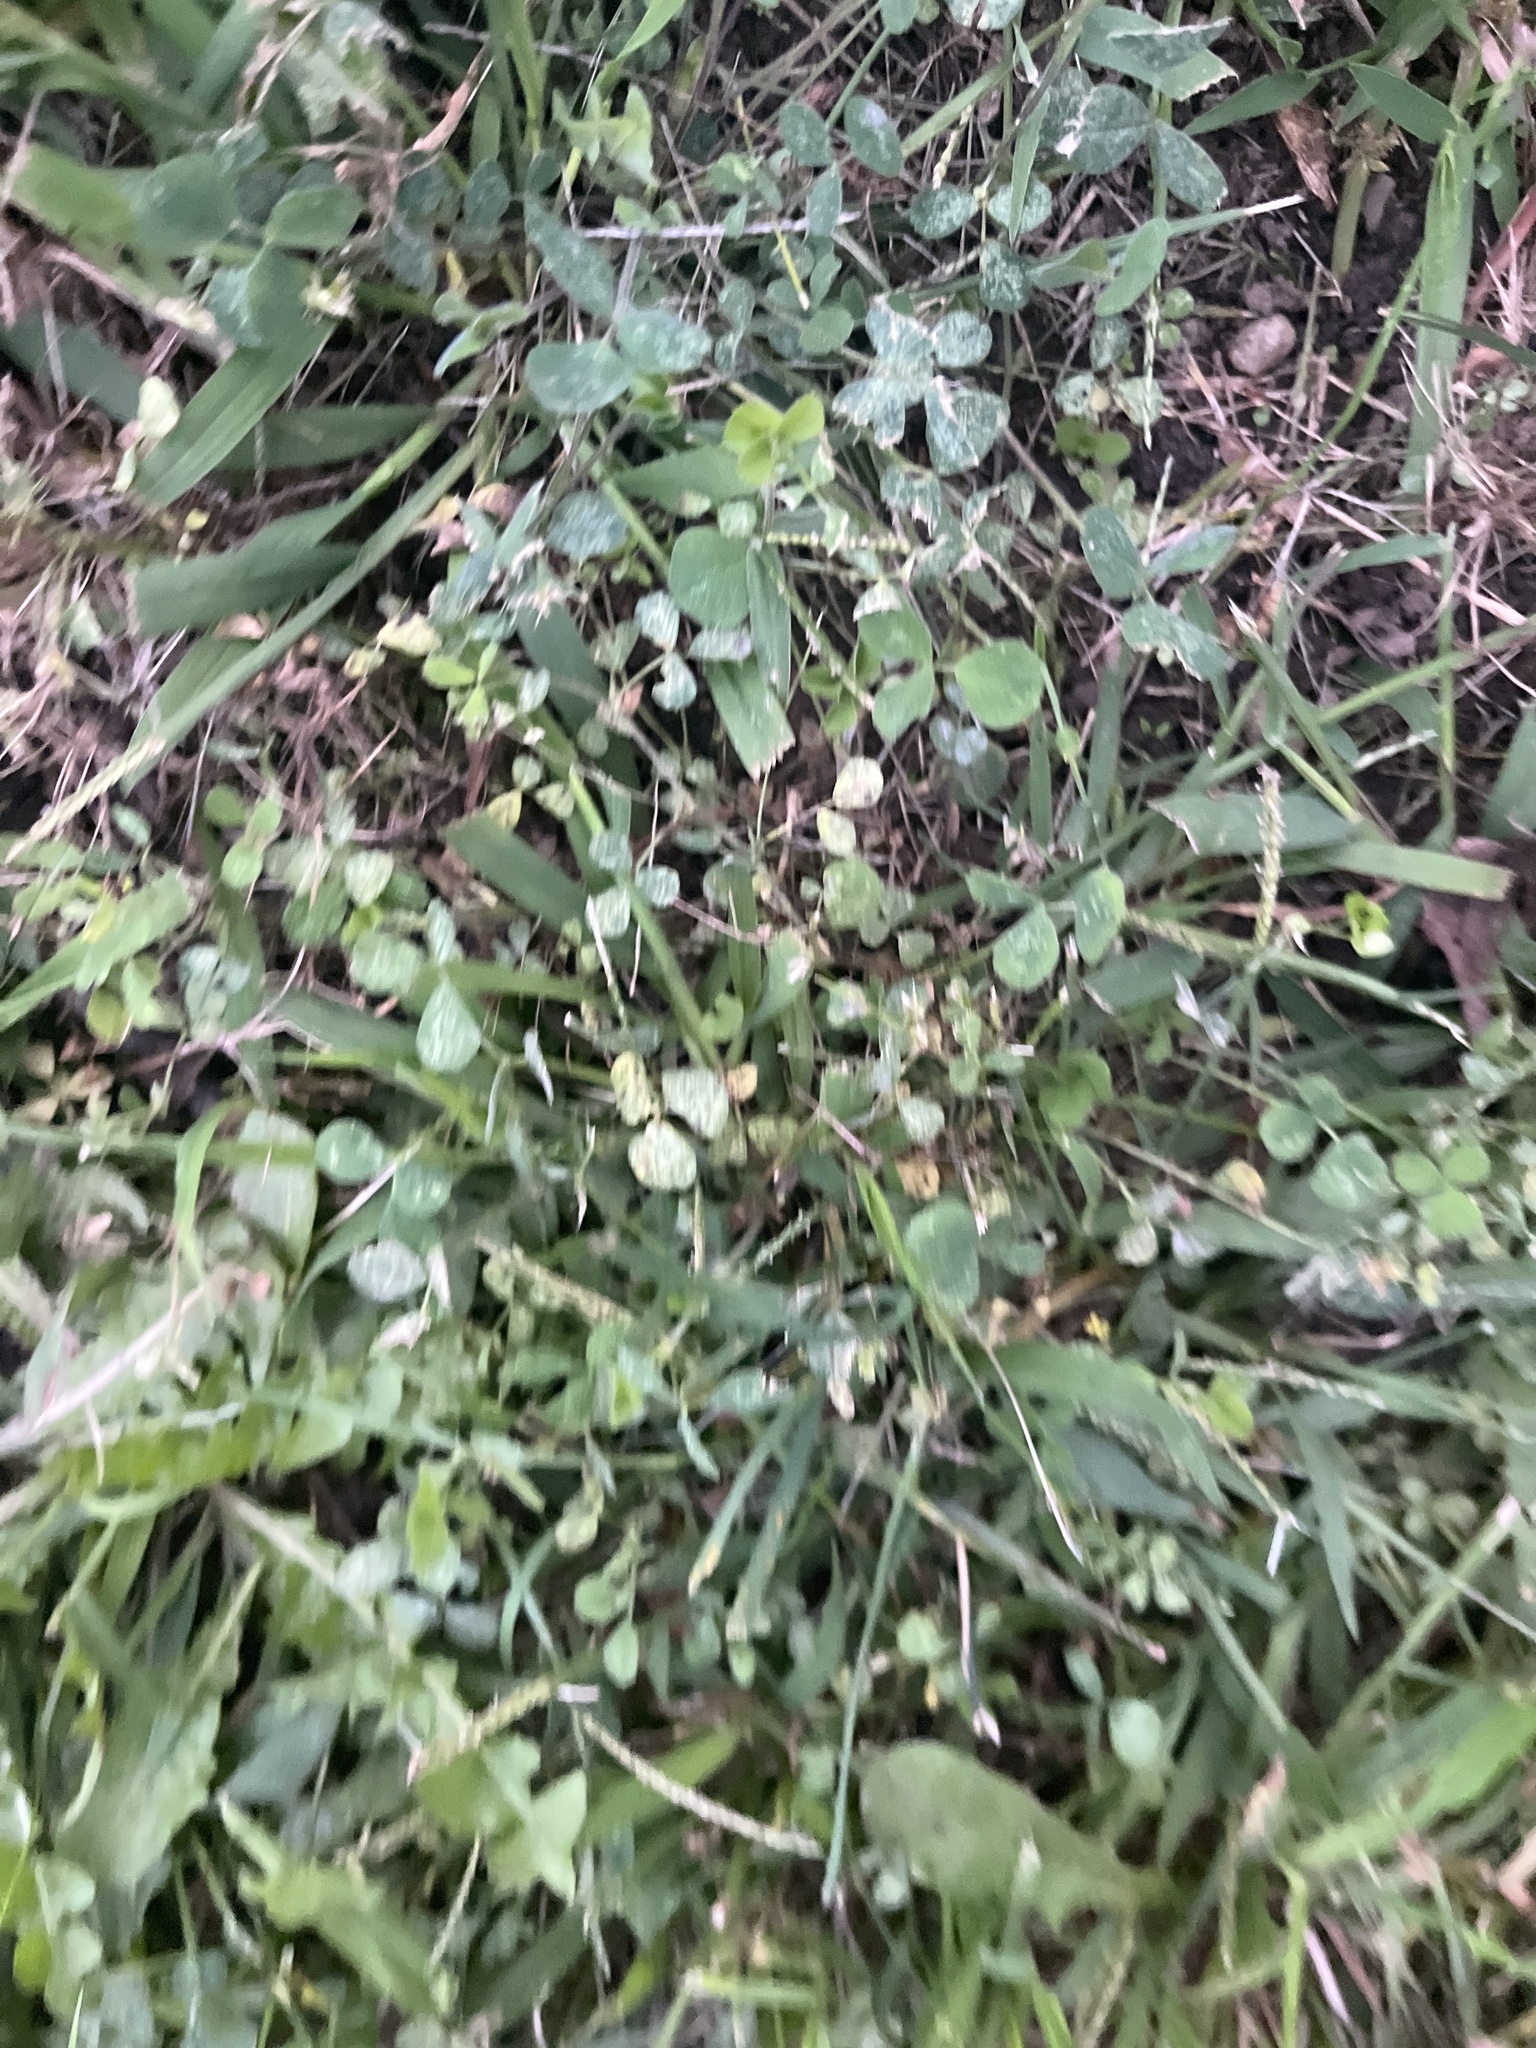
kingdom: Plantae
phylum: Tracheophyta
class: Magnoliopsida
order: Fabales
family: Fabaceae
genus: Trifolium
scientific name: Trifolium repens
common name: White clover
